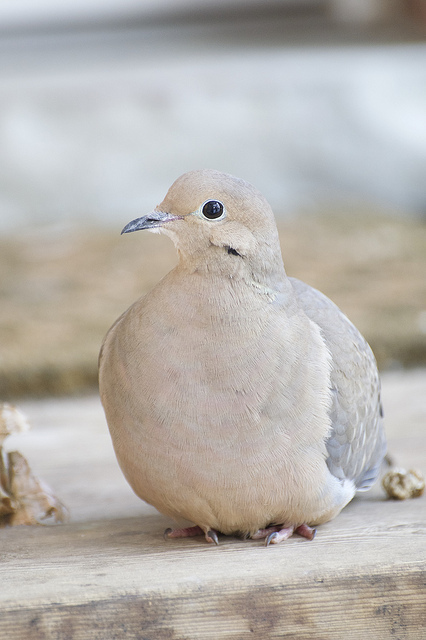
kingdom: Animalia
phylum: Chordata
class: Aves
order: Columbiformes
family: Columbidae
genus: Zenaida
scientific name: Zenaida macroura
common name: Mourning dove
